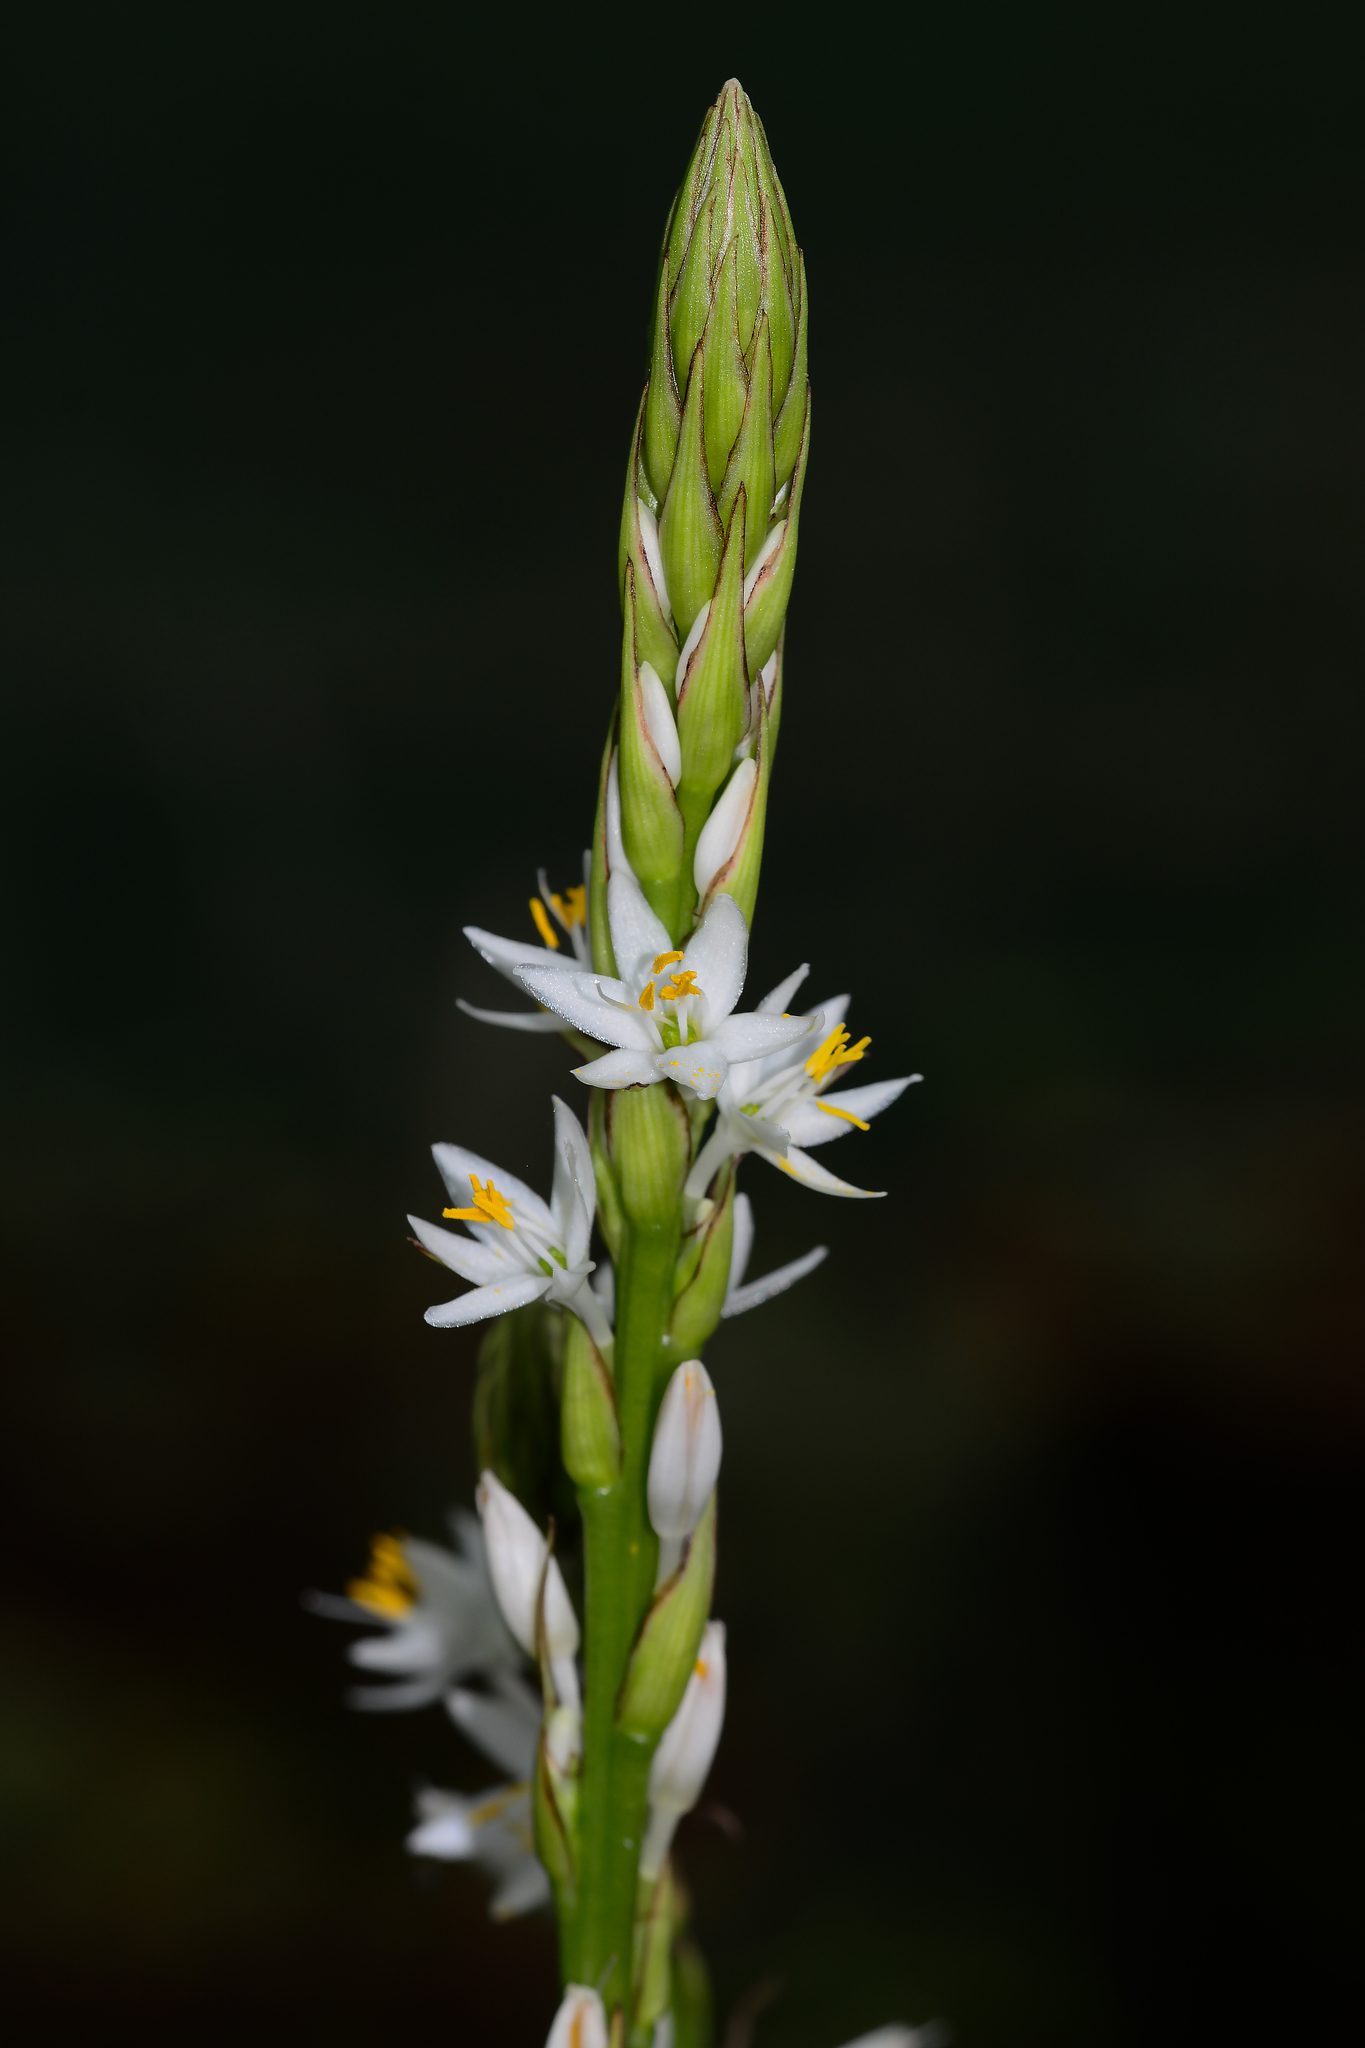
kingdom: Plantae
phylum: Tracheophyta
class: Liliopsida
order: Asparagales
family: Asparagaceae
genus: Chlorophytum
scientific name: Chlorophytum gothanense
